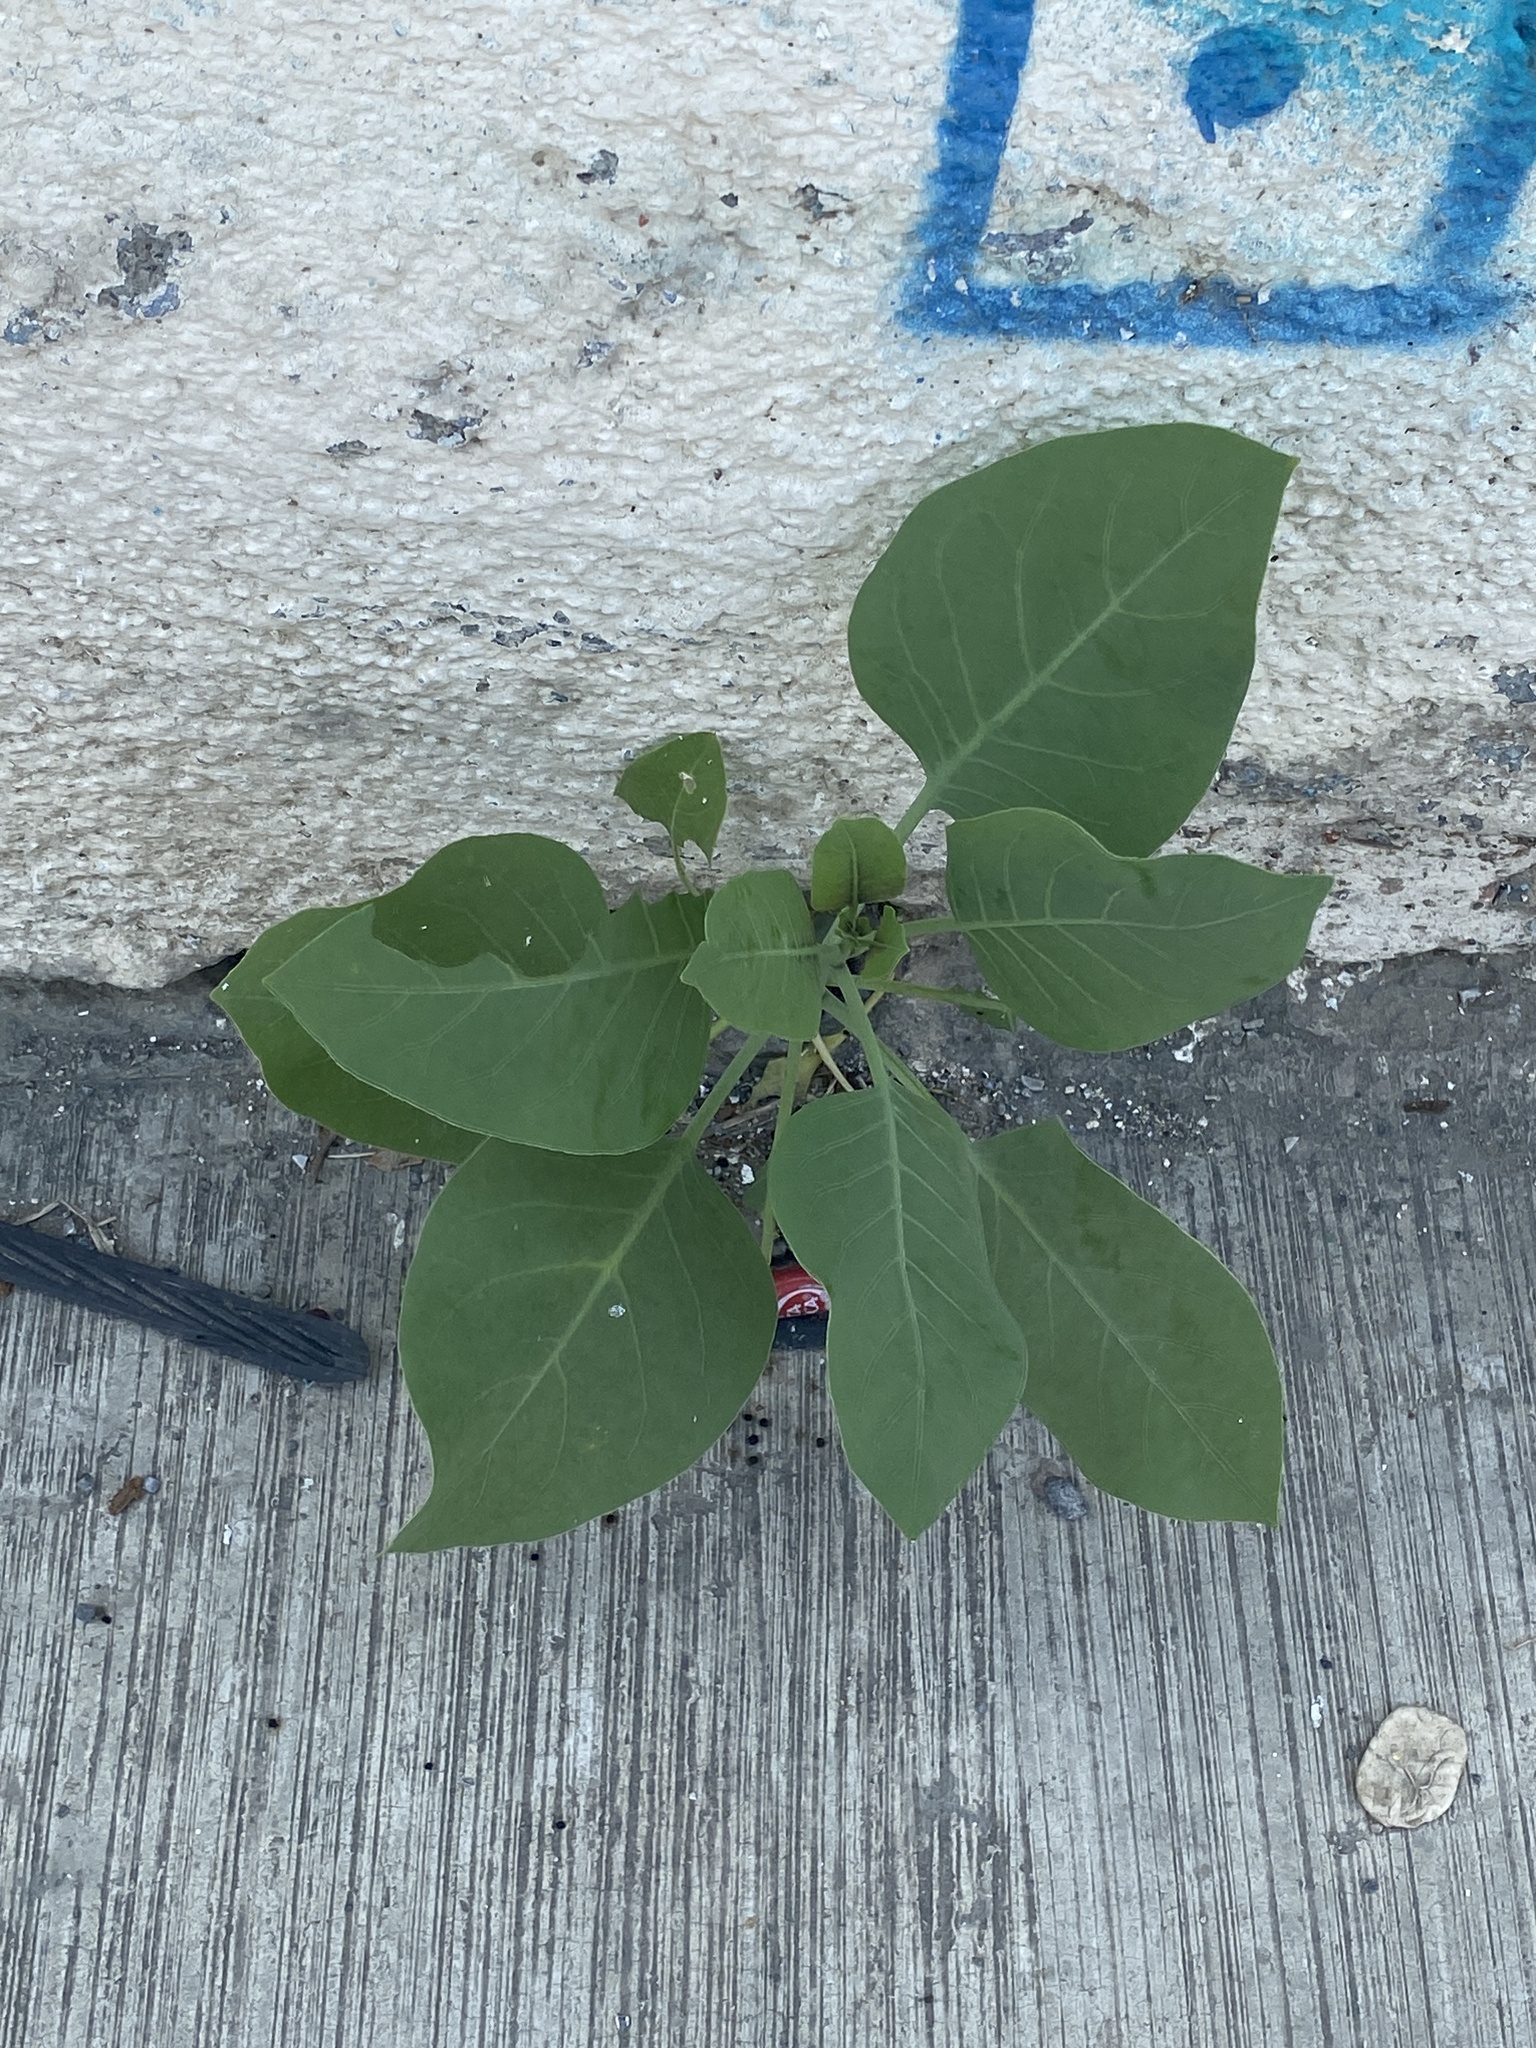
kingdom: Plantae
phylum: Tracheophyta
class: Magnoliopsida
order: Solanales
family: Solanaceae
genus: Nicotiana
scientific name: Nicotiana glauca
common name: Tree tobacco
